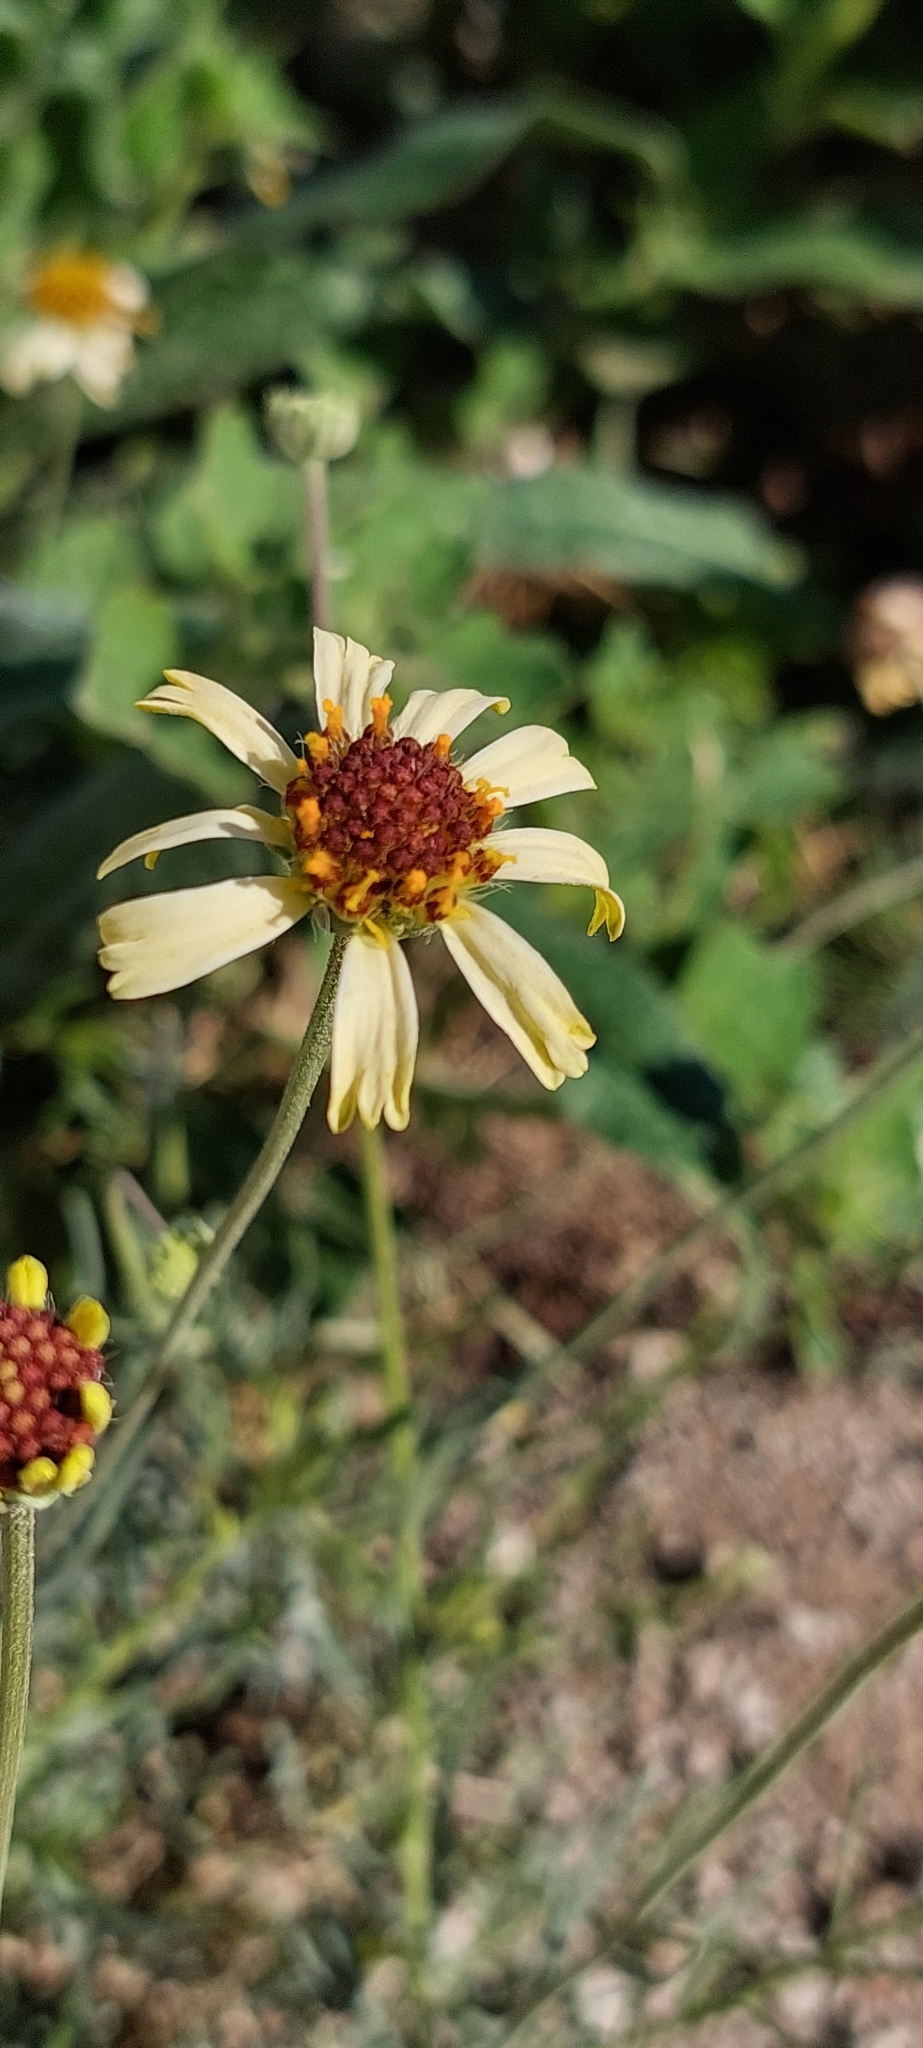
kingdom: Plantae
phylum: Tracheophyta
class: Magnoliopsida
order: Asterales
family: Asteraceae
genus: Helenium
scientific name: Helenium uniflorum
